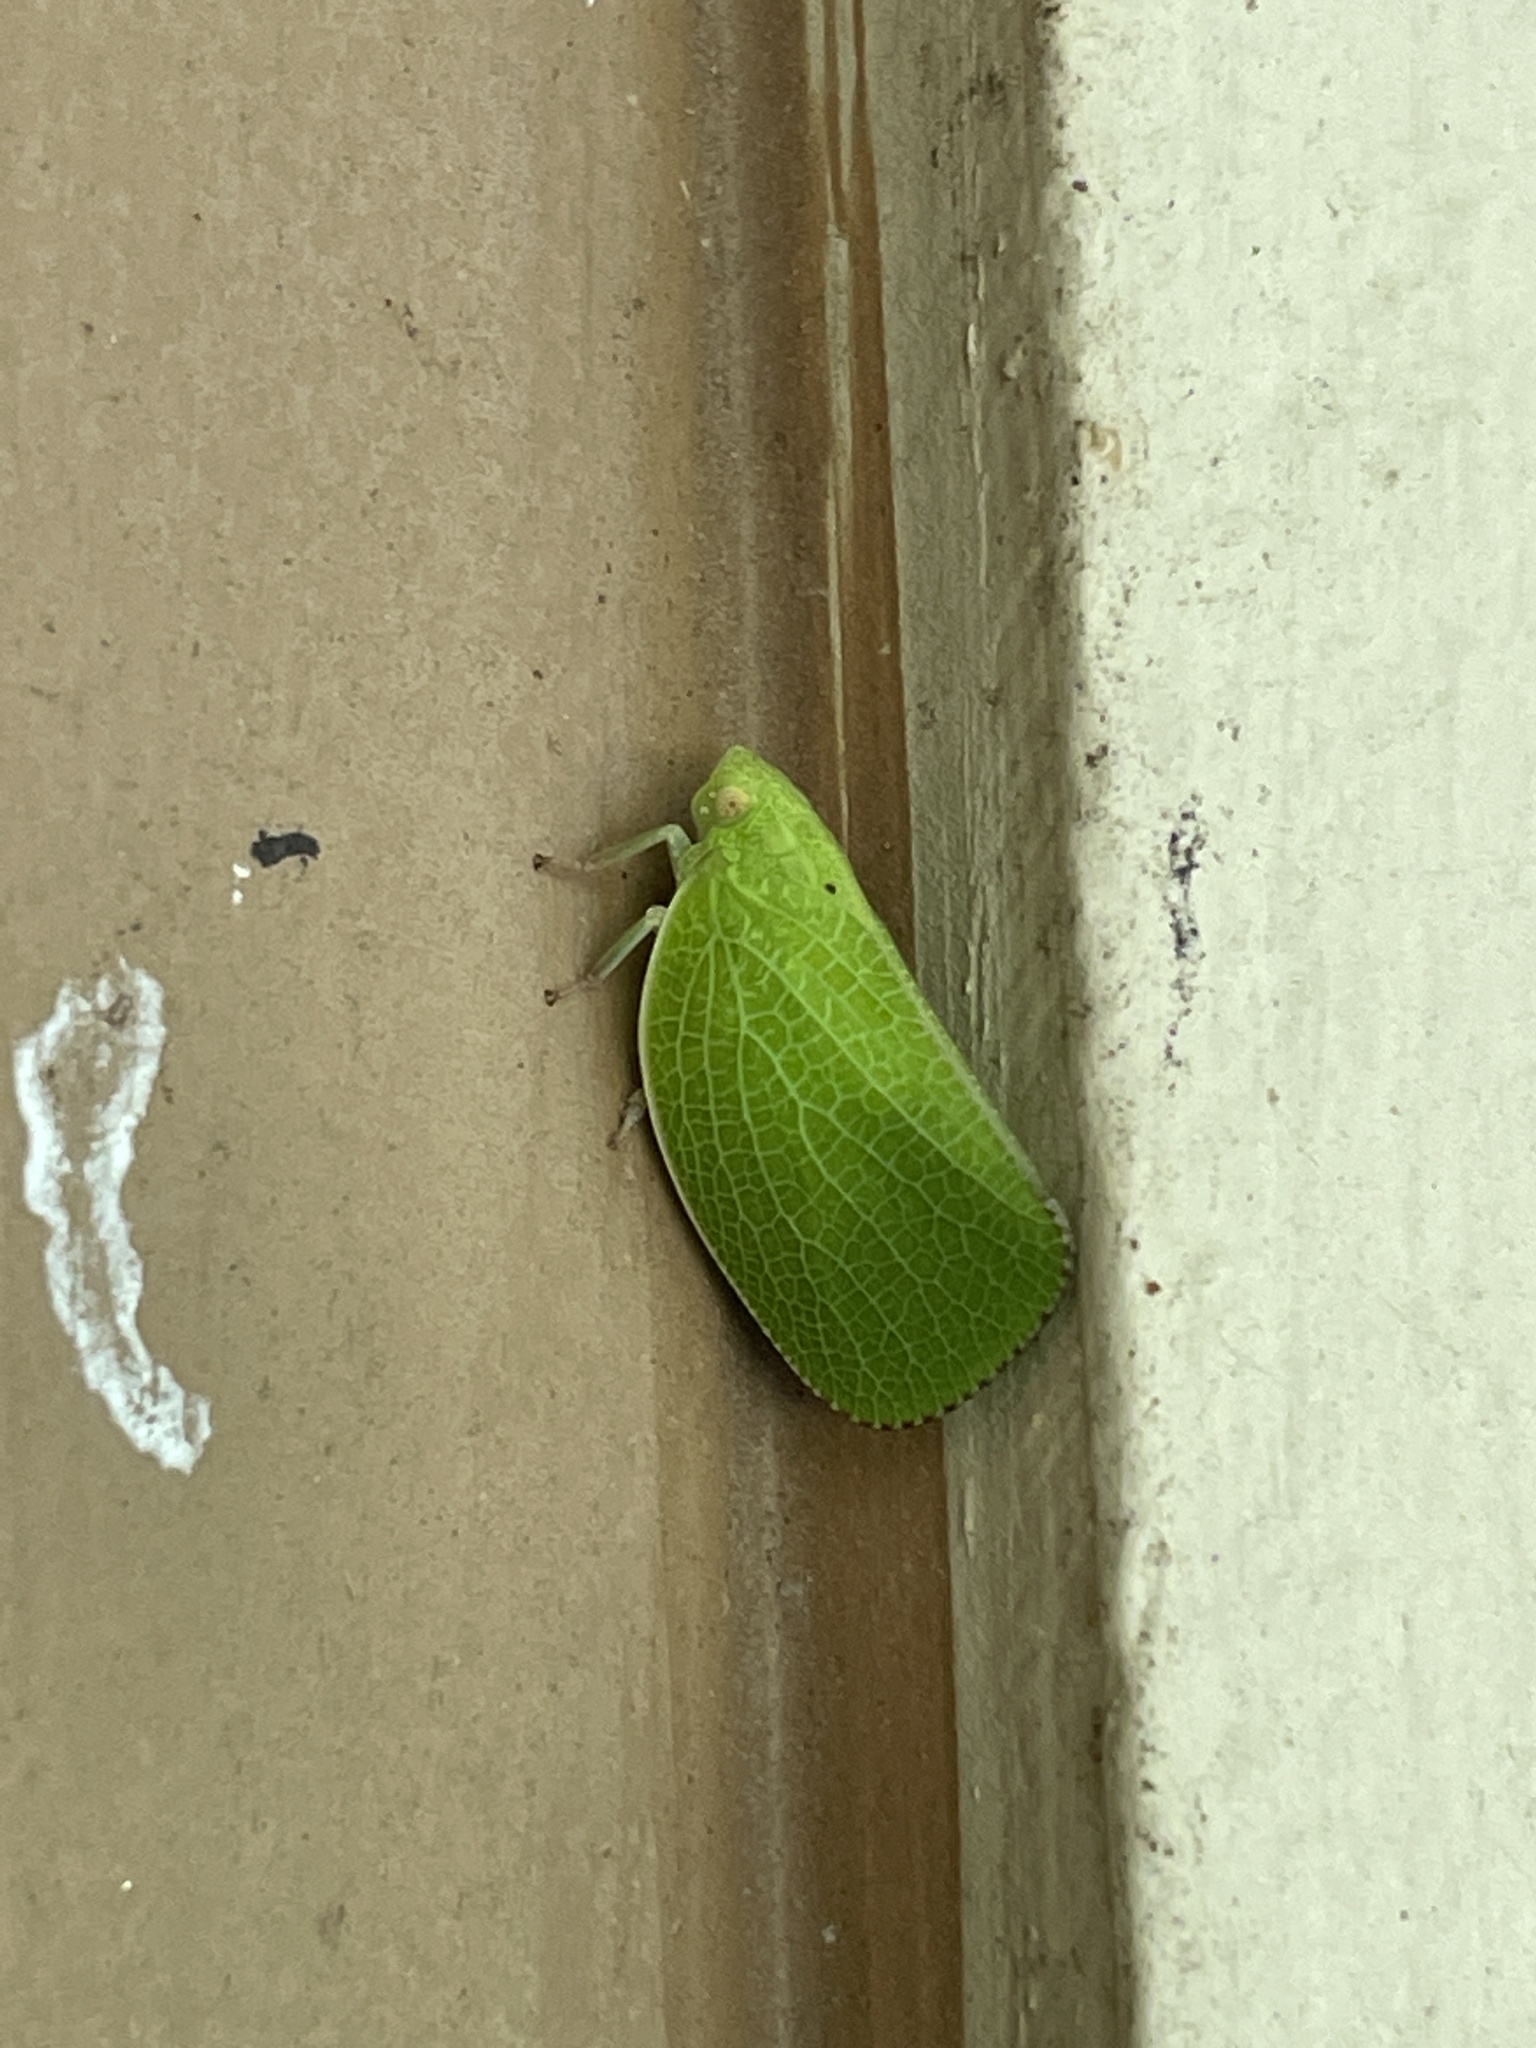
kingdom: Animalia
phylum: Arthropoda
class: Insecta
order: Hemiptera
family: Acanaloniidae
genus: Acanalonia
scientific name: Acanalonia conica
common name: Green cone-headed planthopper
